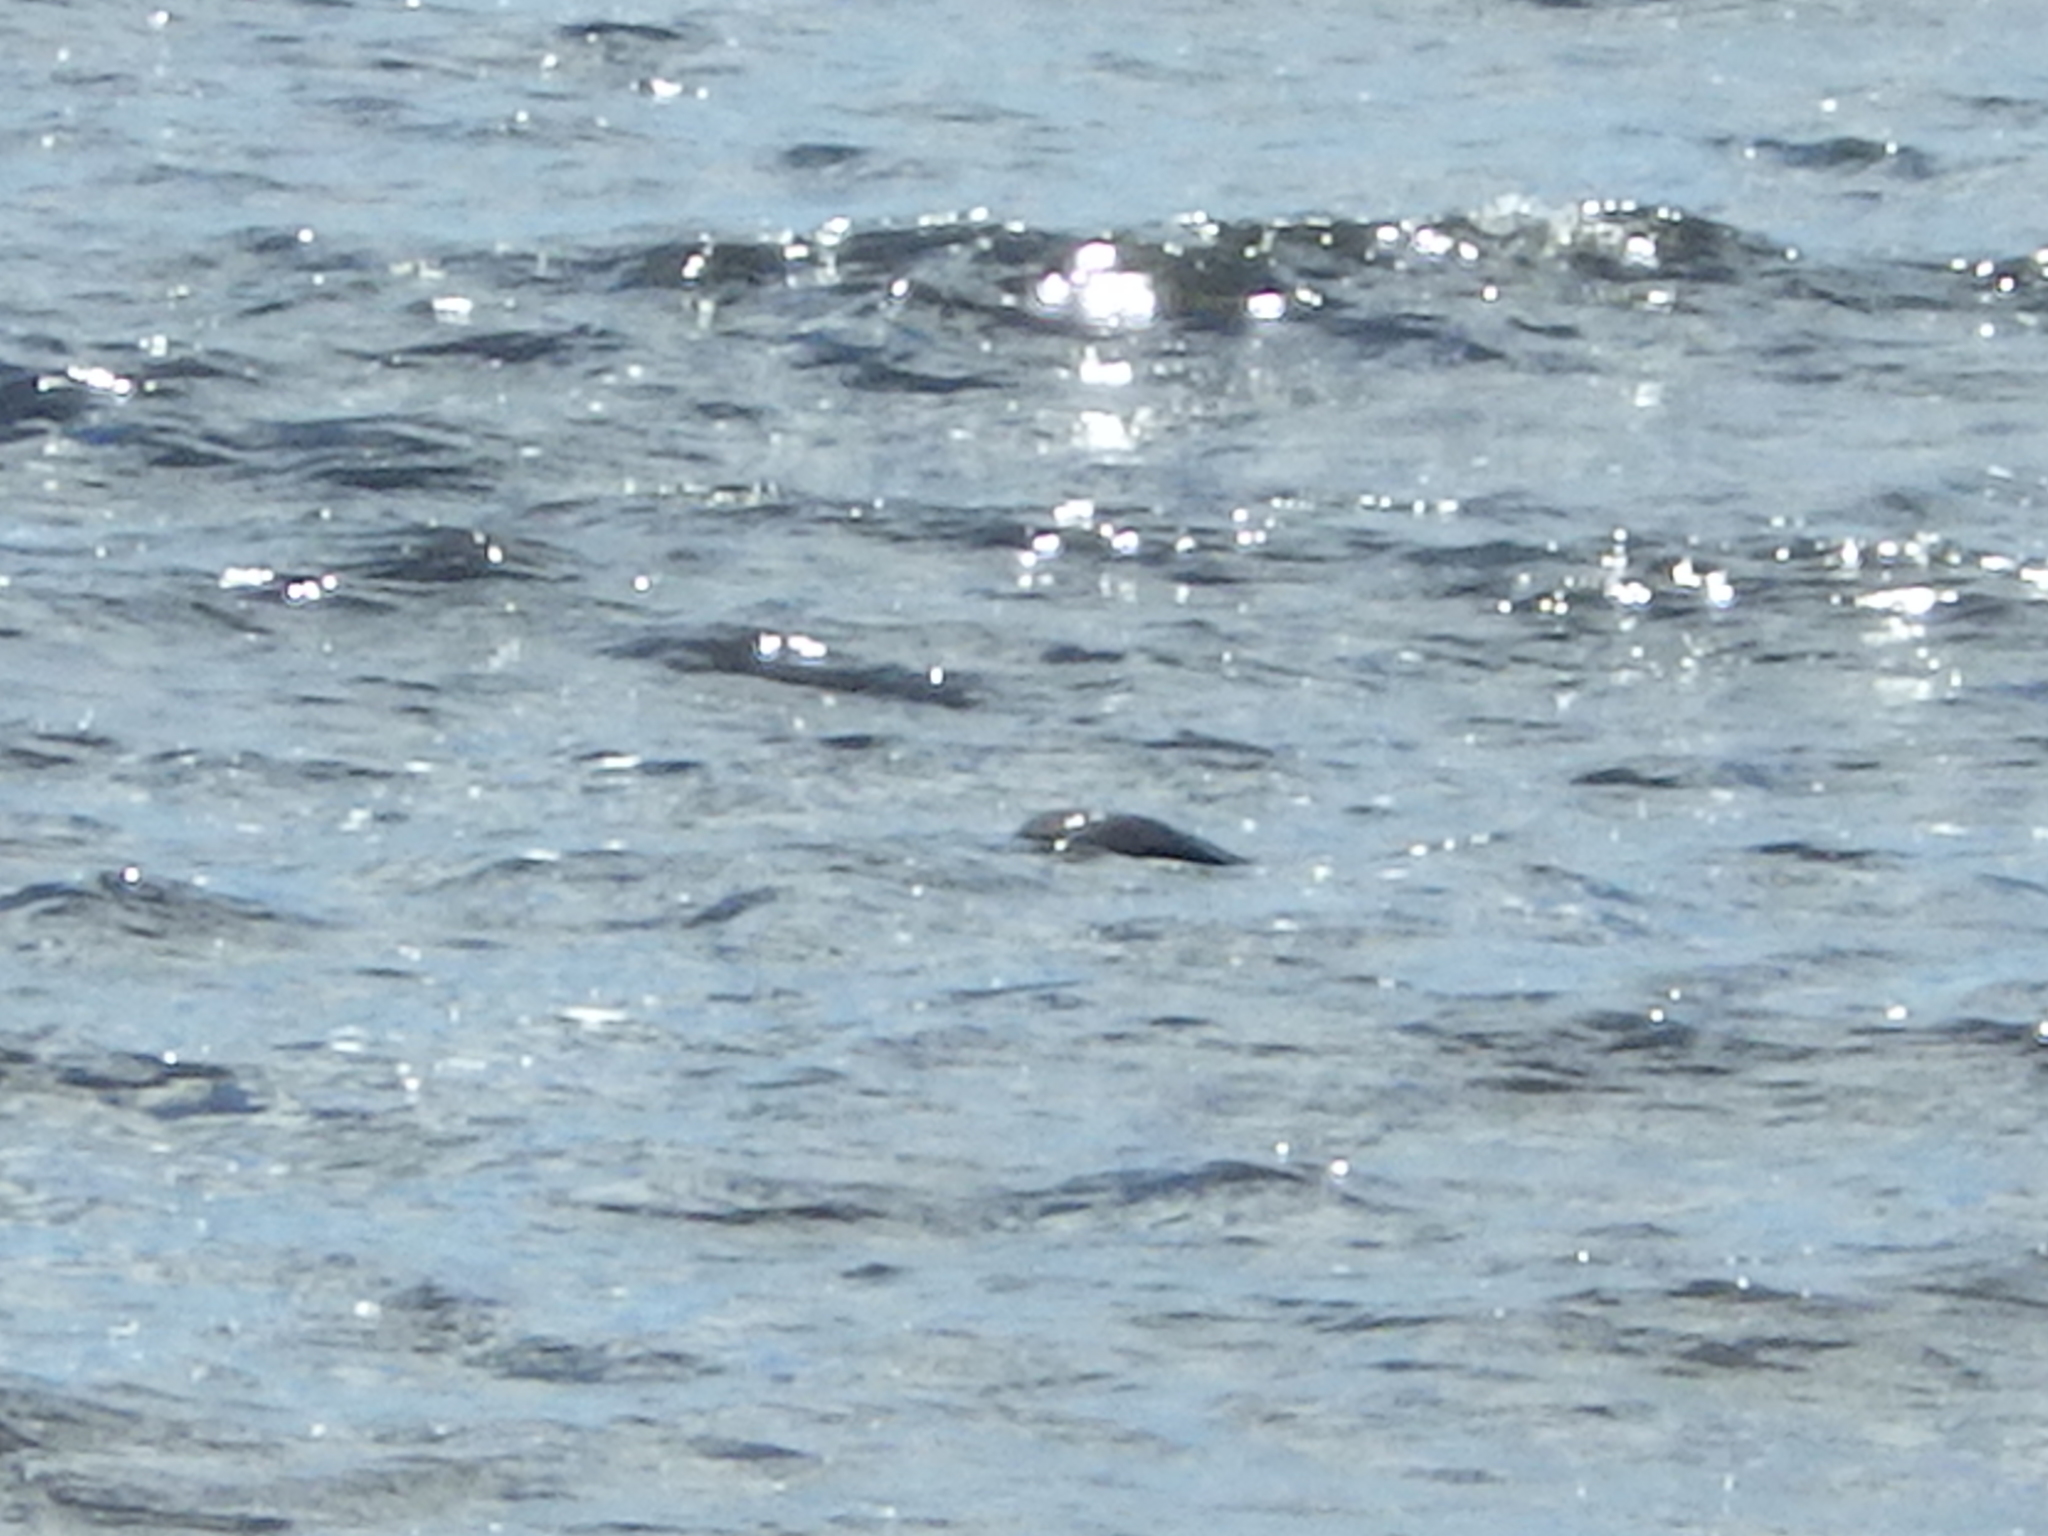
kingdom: Animalia
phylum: Chordata
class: Aves
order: Suliformes
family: Phalacrocoracidae
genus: Phalacrocorax
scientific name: Phalacrocorax auritus
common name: Double-crested cormorant
